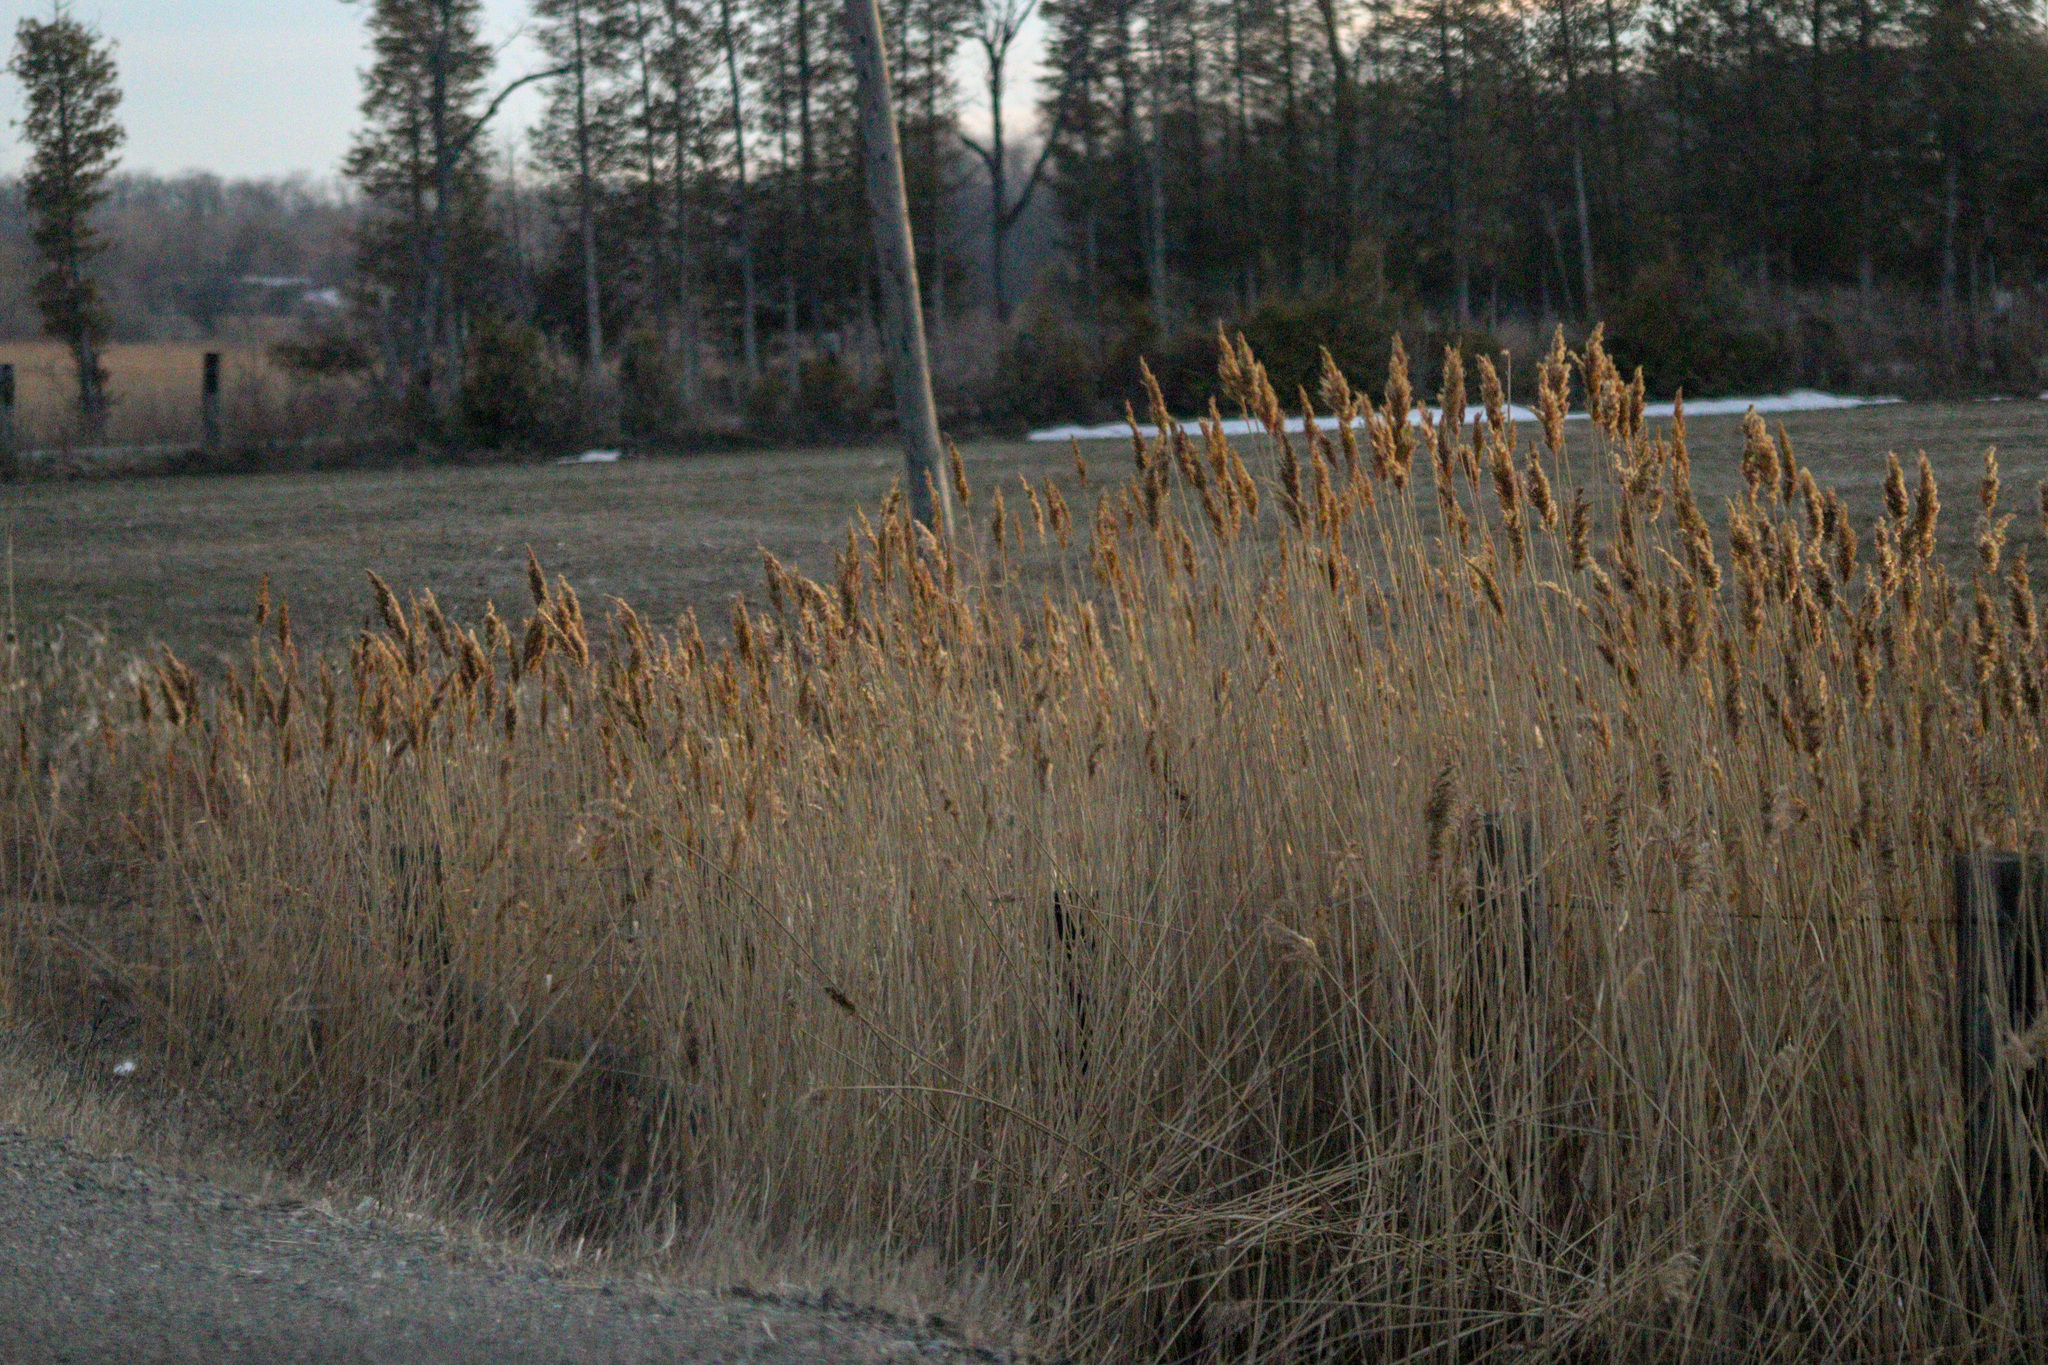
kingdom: Plantae
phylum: Tracheophyta
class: Liliopsida
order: Poales
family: Poaceae
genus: Phragmites
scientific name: Phragmites australis
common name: Common reed
